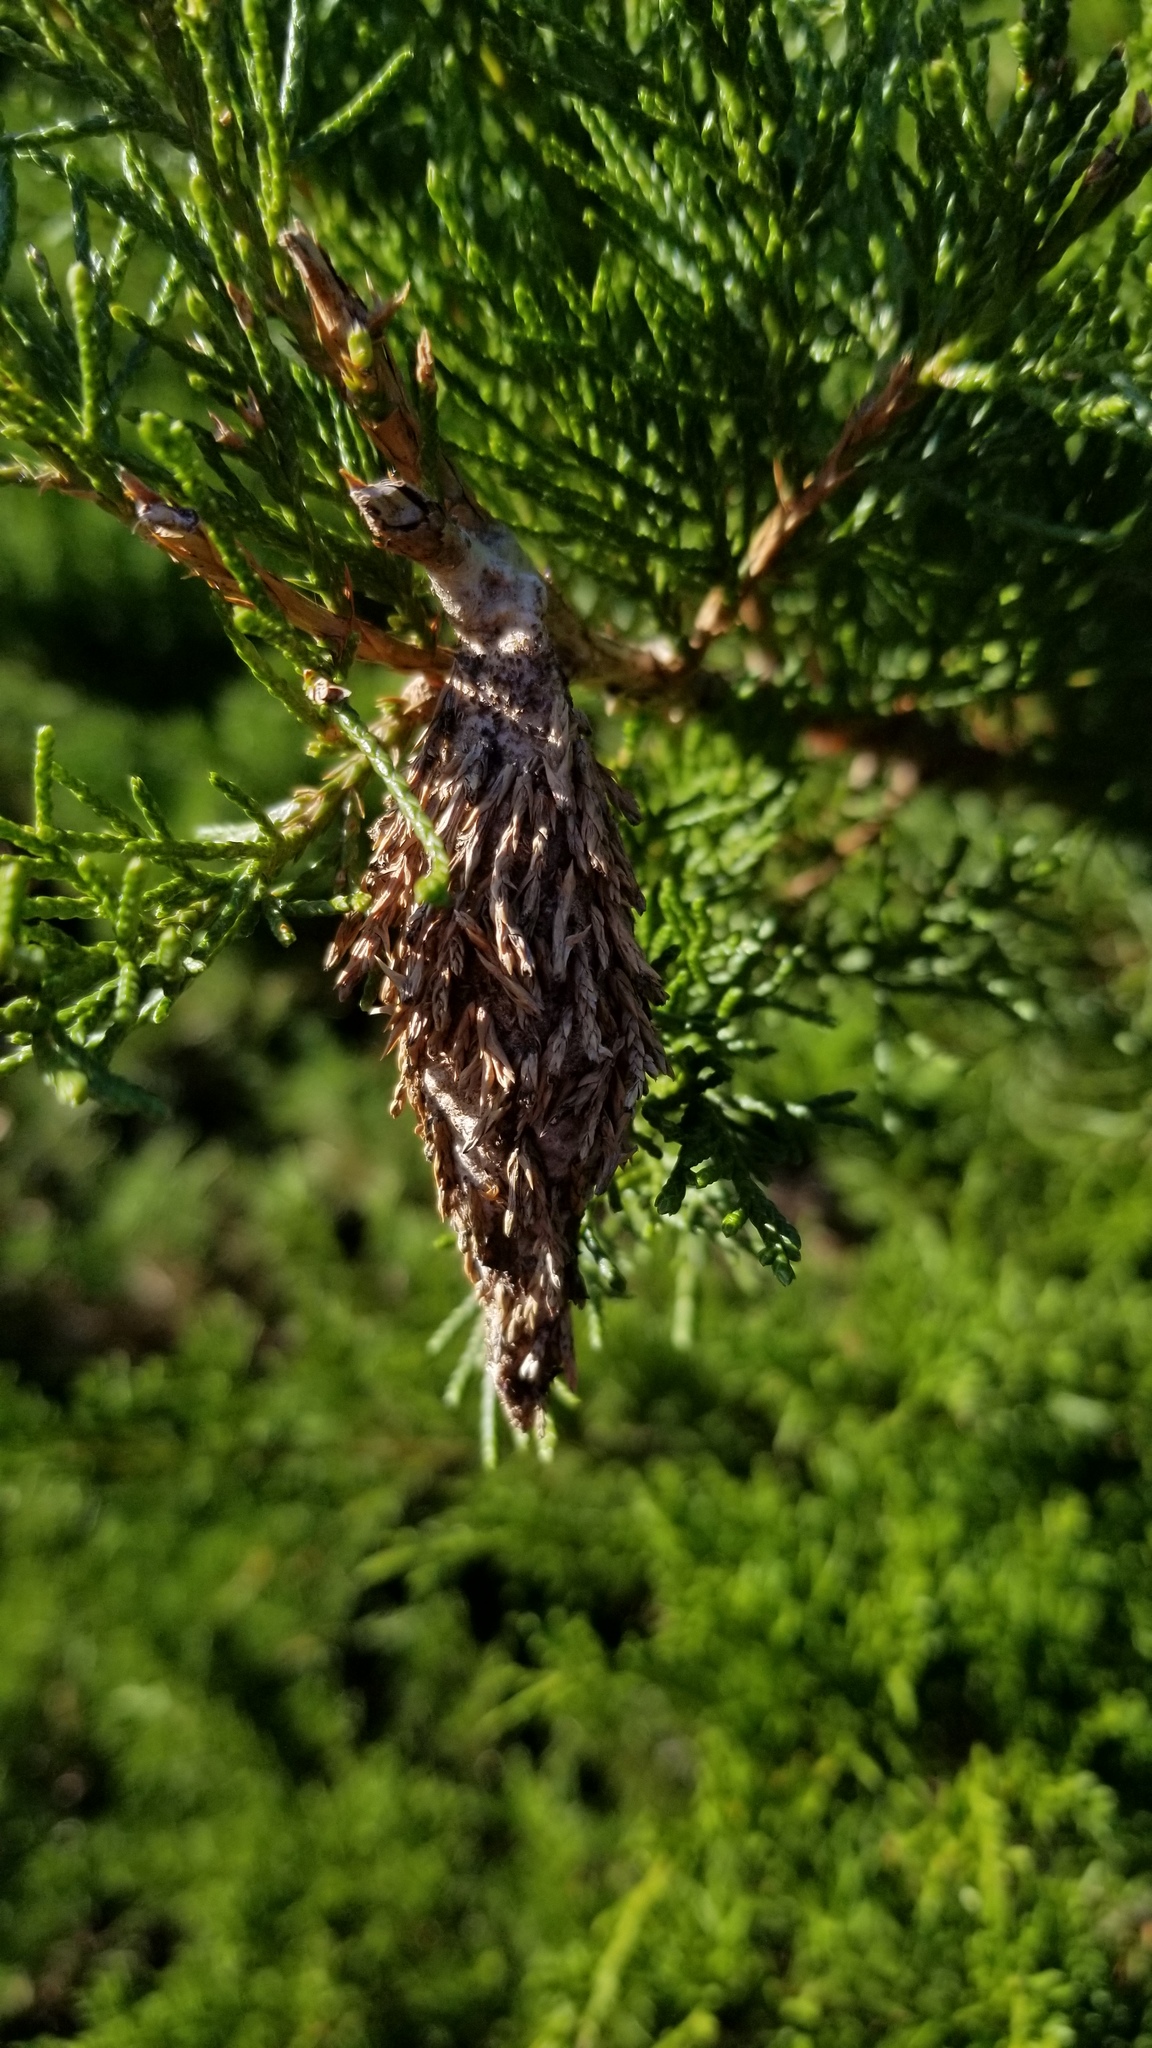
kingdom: Animalia
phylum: Arthropoda
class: Insecta
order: Lepidoptera
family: Psychidae
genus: Thyridopteryx
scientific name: Thyridopteryx ephemeraeformis
